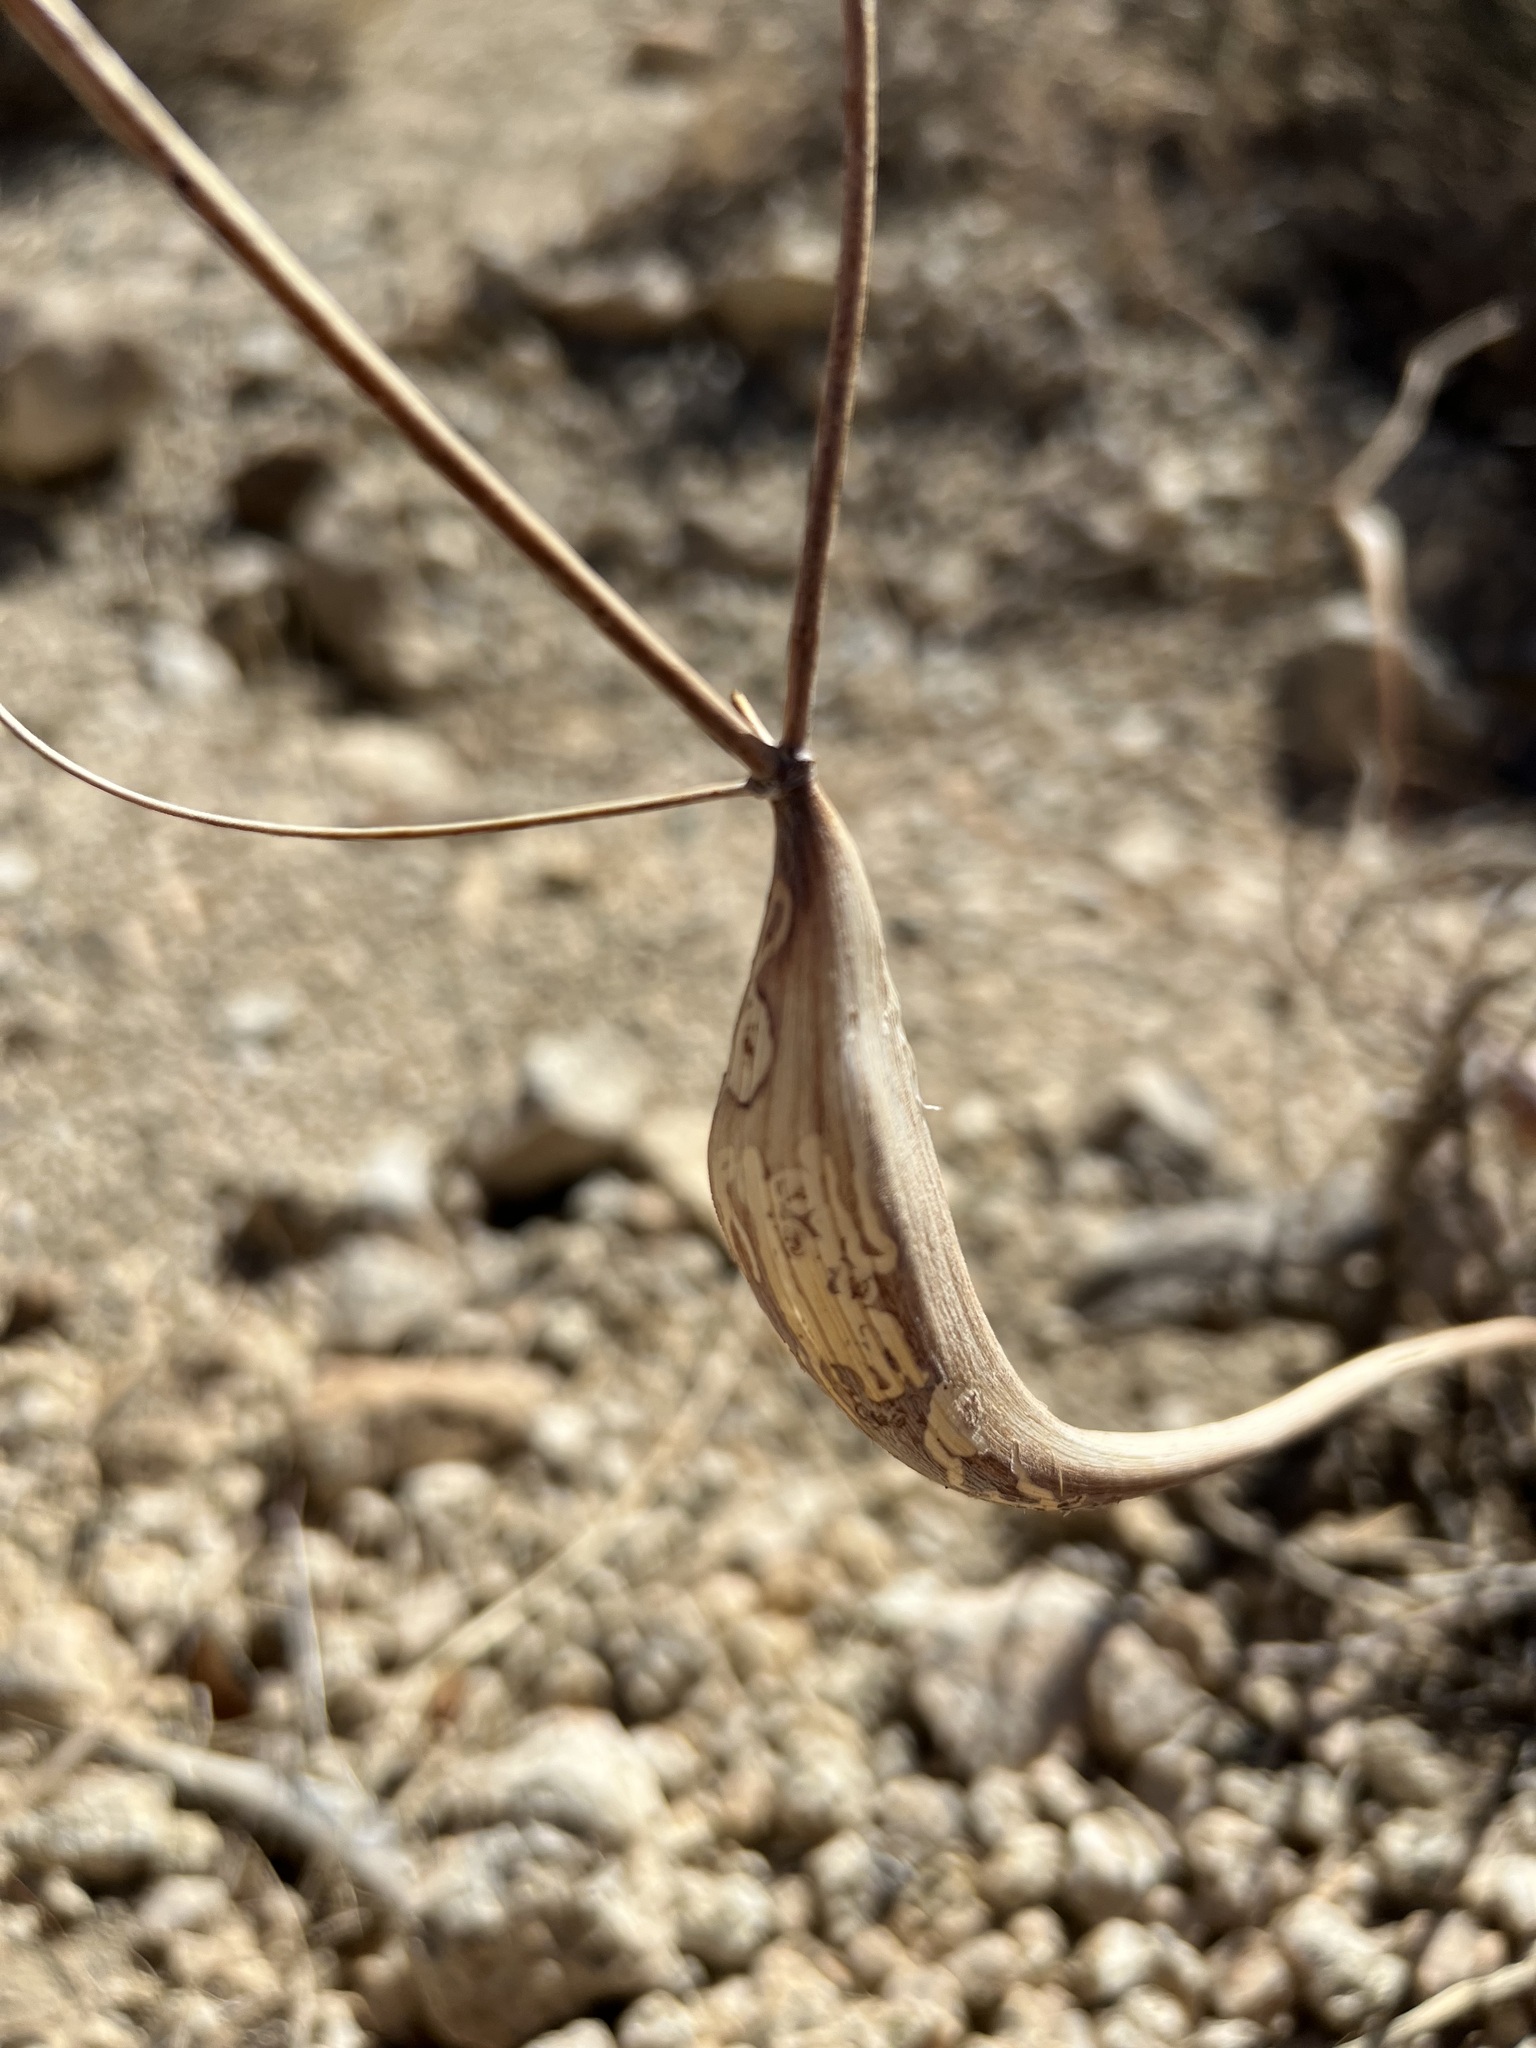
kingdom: Plantae
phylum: Tracheophyta
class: Magnoliopsida
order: Caryophyllales
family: Polygonaceae
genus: Eriogonum
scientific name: Eriogonum inflatum
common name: Desert trumpet
